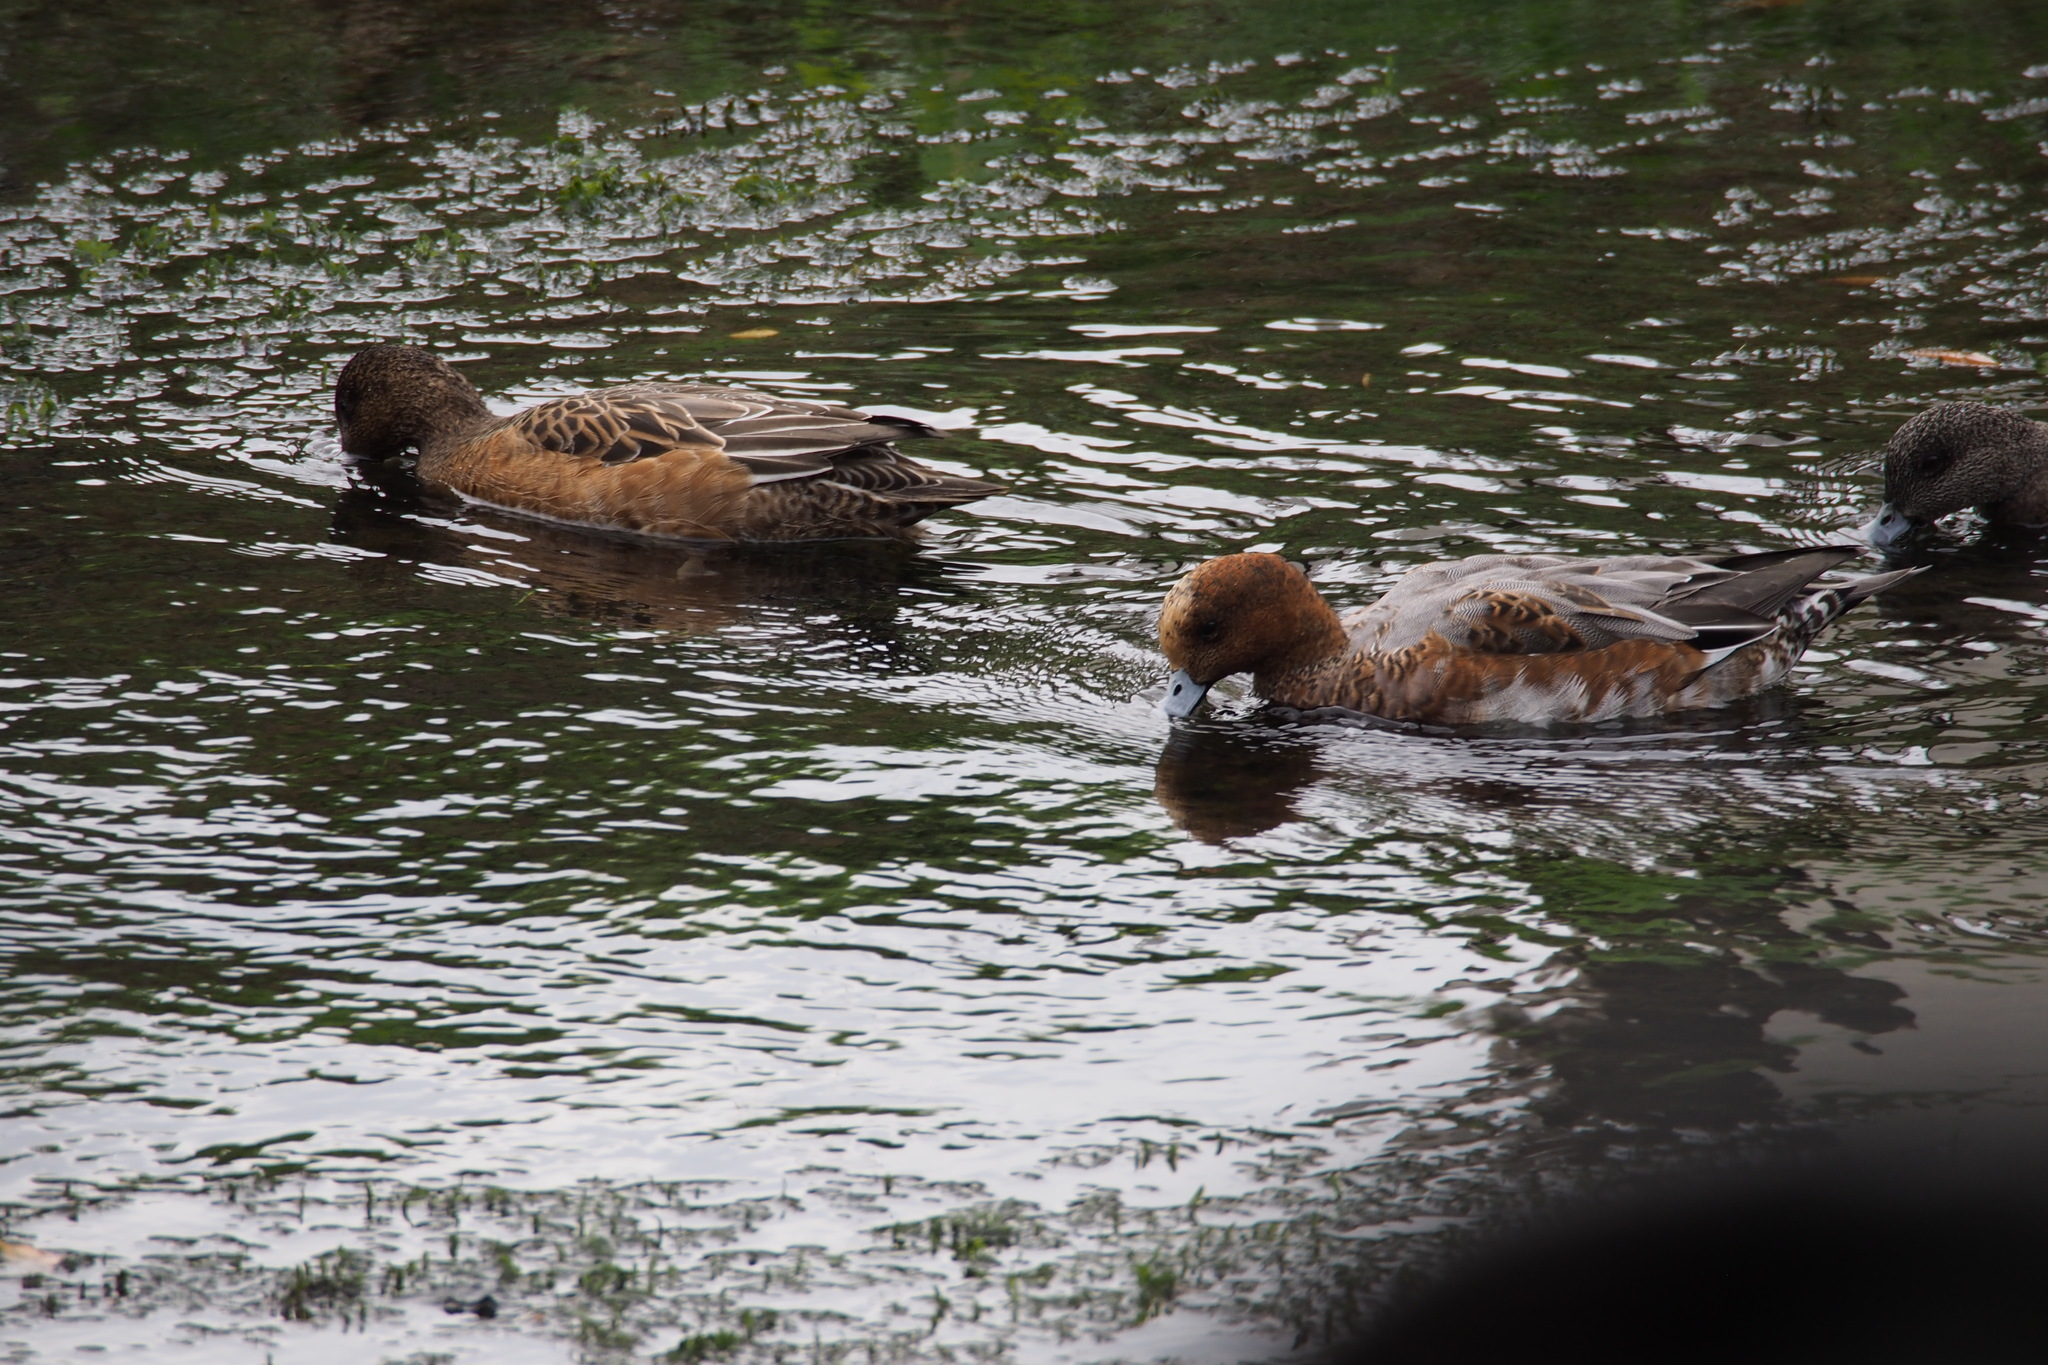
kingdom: Animalia
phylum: Chordata
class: Aves
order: Anseriformes
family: Anatidae
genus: Mareca
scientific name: Mareca penelope
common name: Eurasian wigeon
